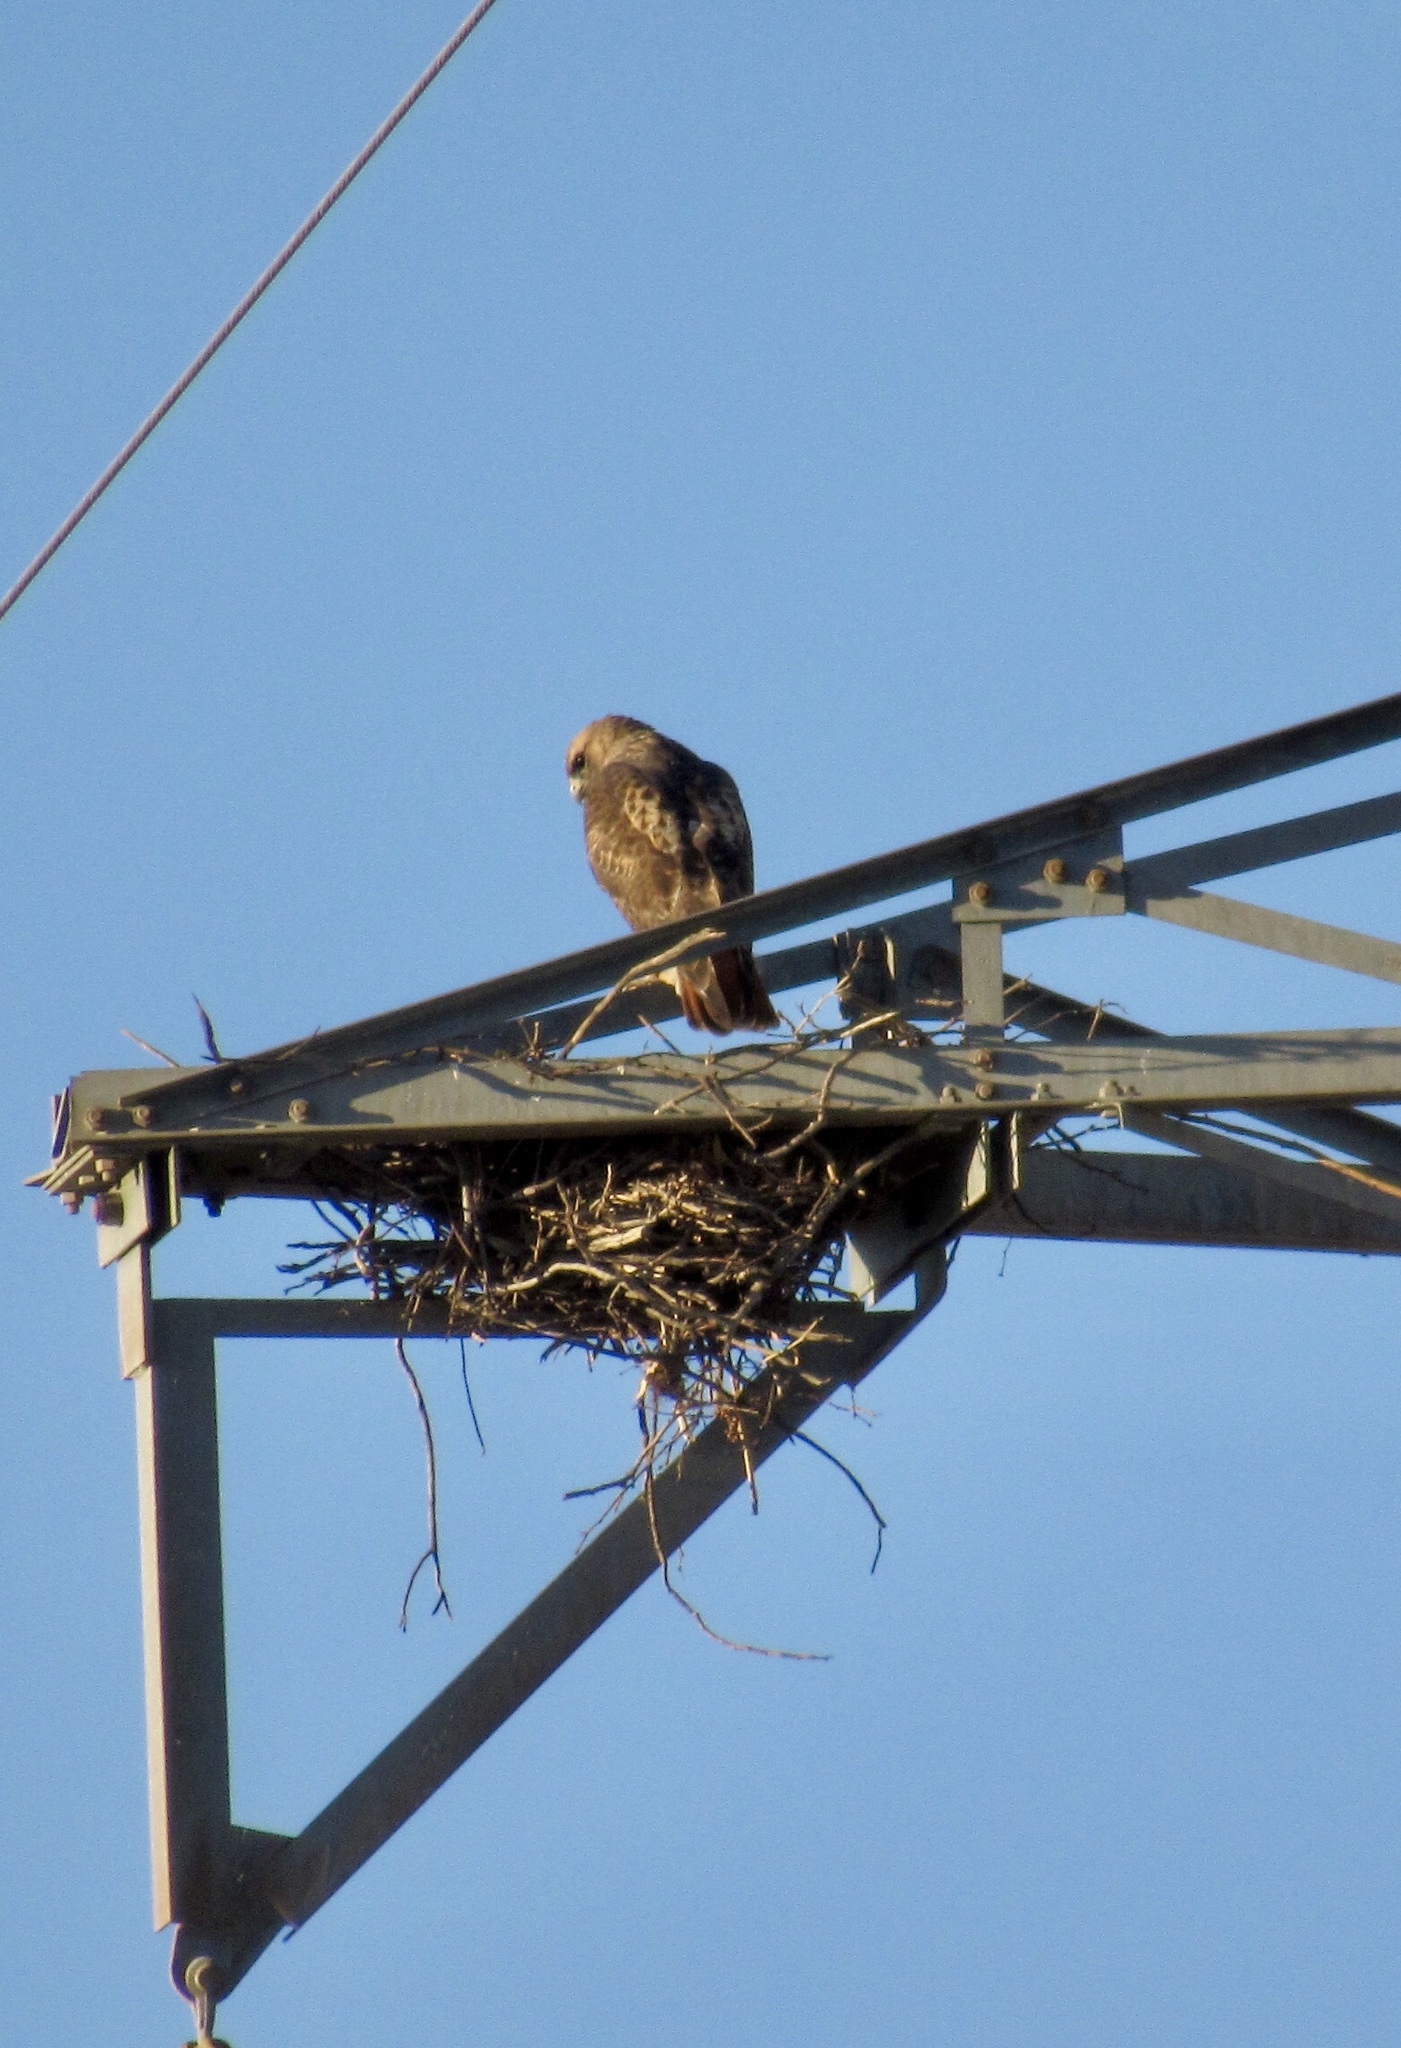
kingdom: Animalia
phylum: Chordata
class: Aves
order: Accipitriformes
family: Accipitridae
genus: Buteo
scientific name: Buteo jamaicensis
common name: Red-tailed hawk
